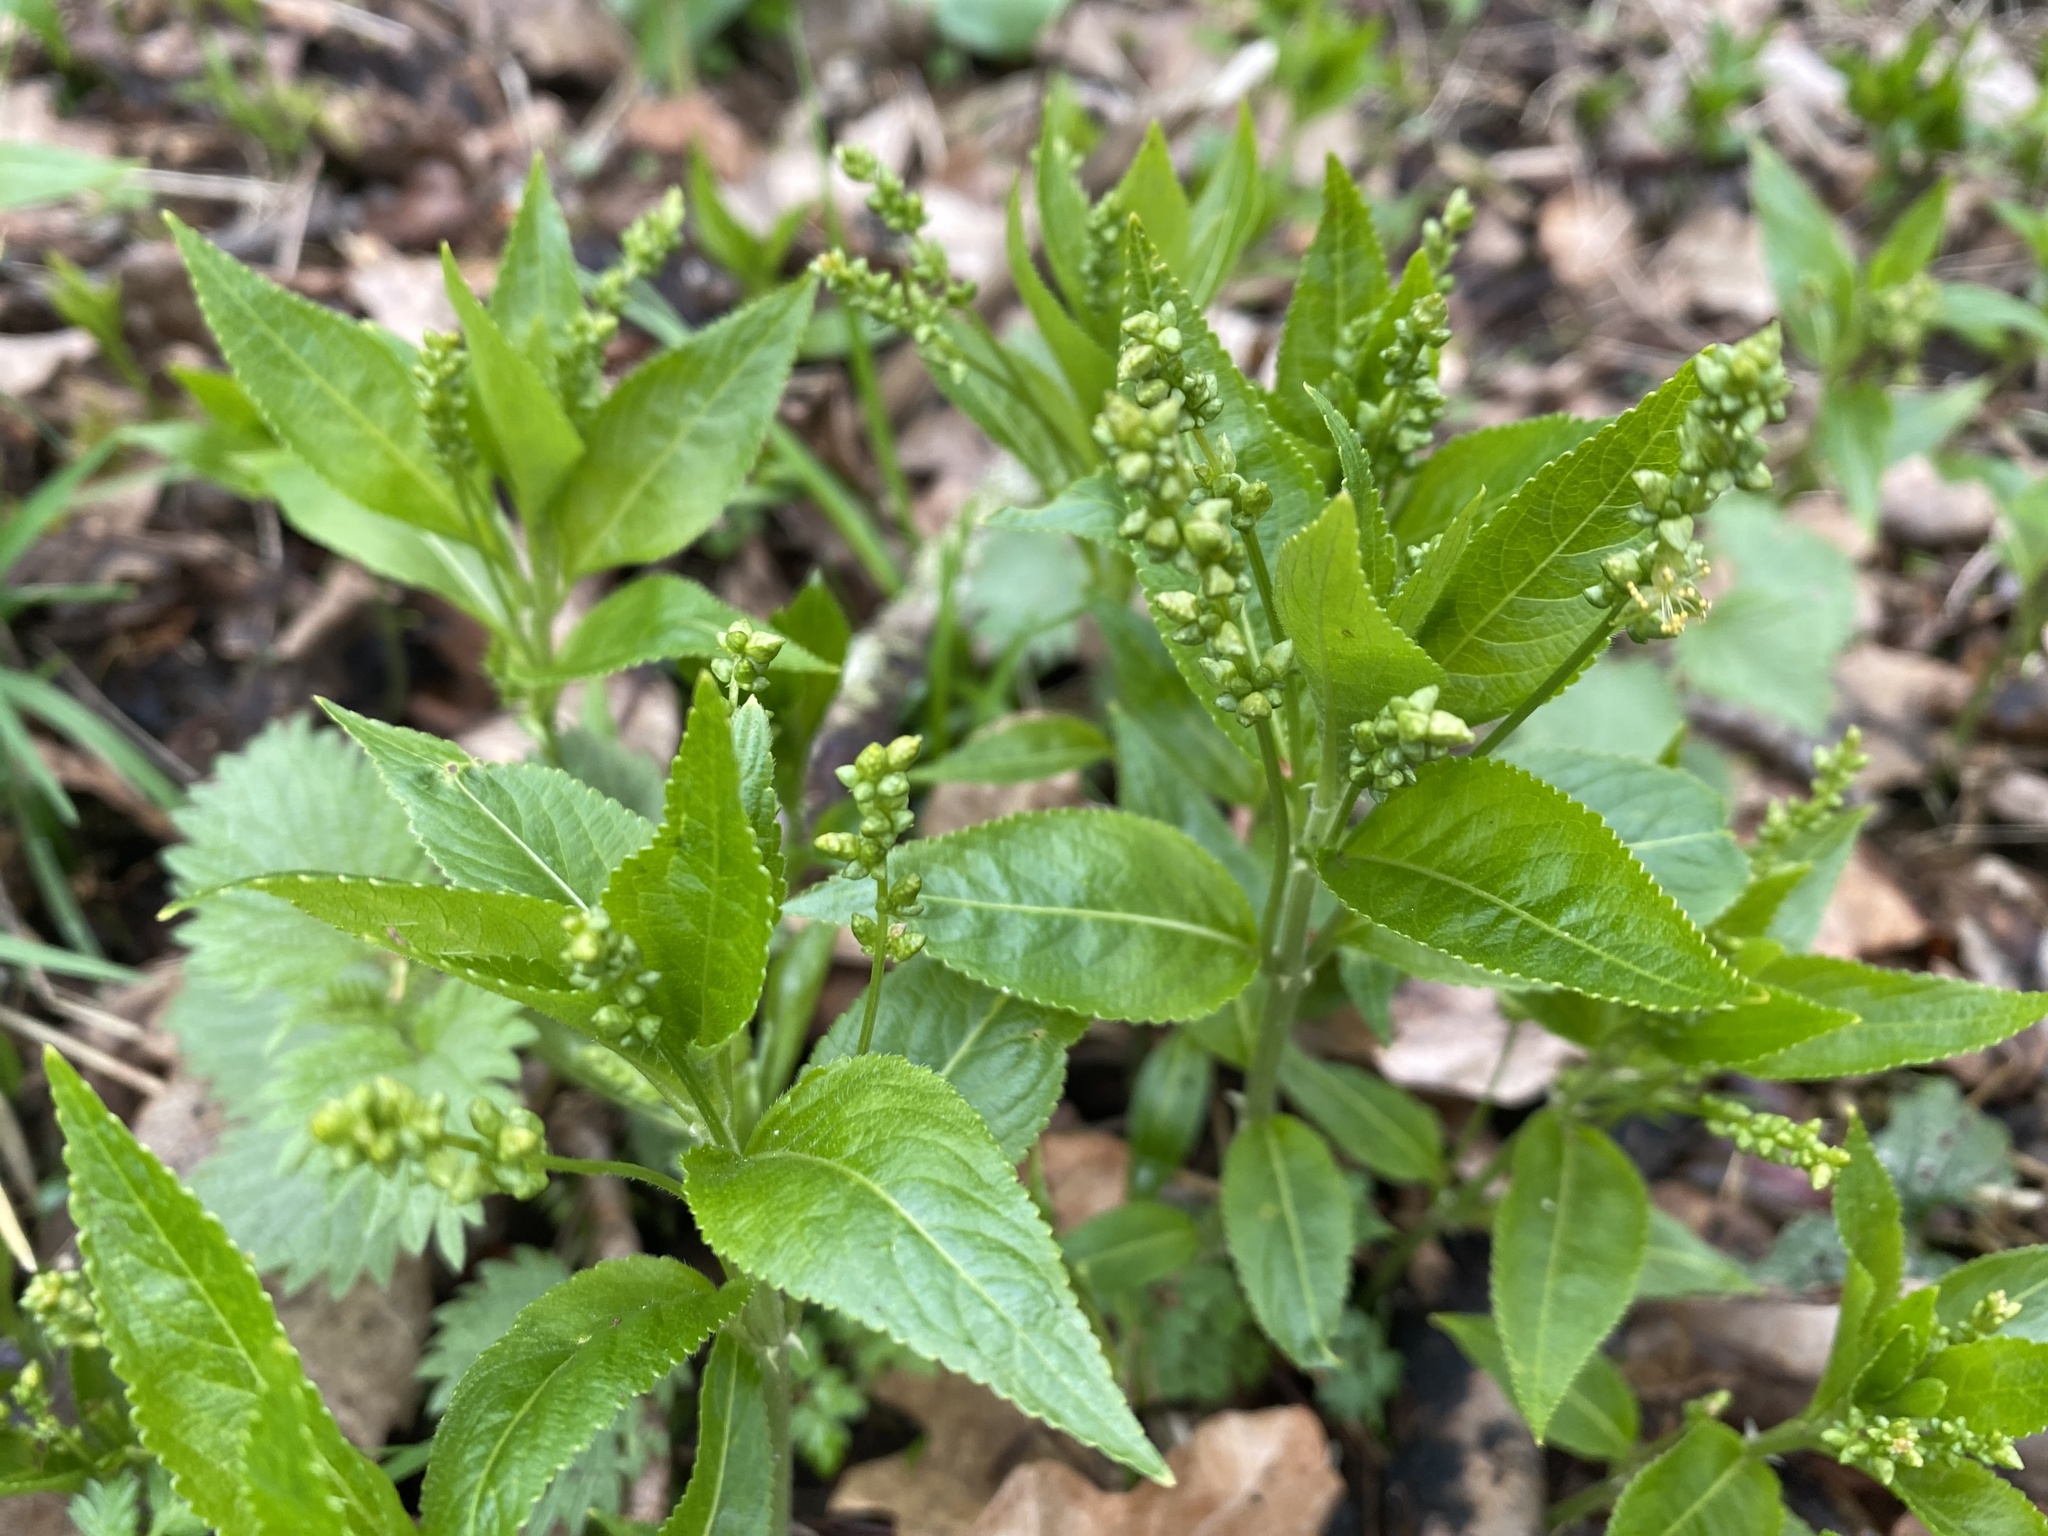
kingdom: Plantae
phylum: Tracheophyta
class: Magnoliopsida
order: Malpighiales
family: Euphorbiaceae
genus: Mercurialis
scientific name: Mercurialis perennis
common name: Dog mercury
